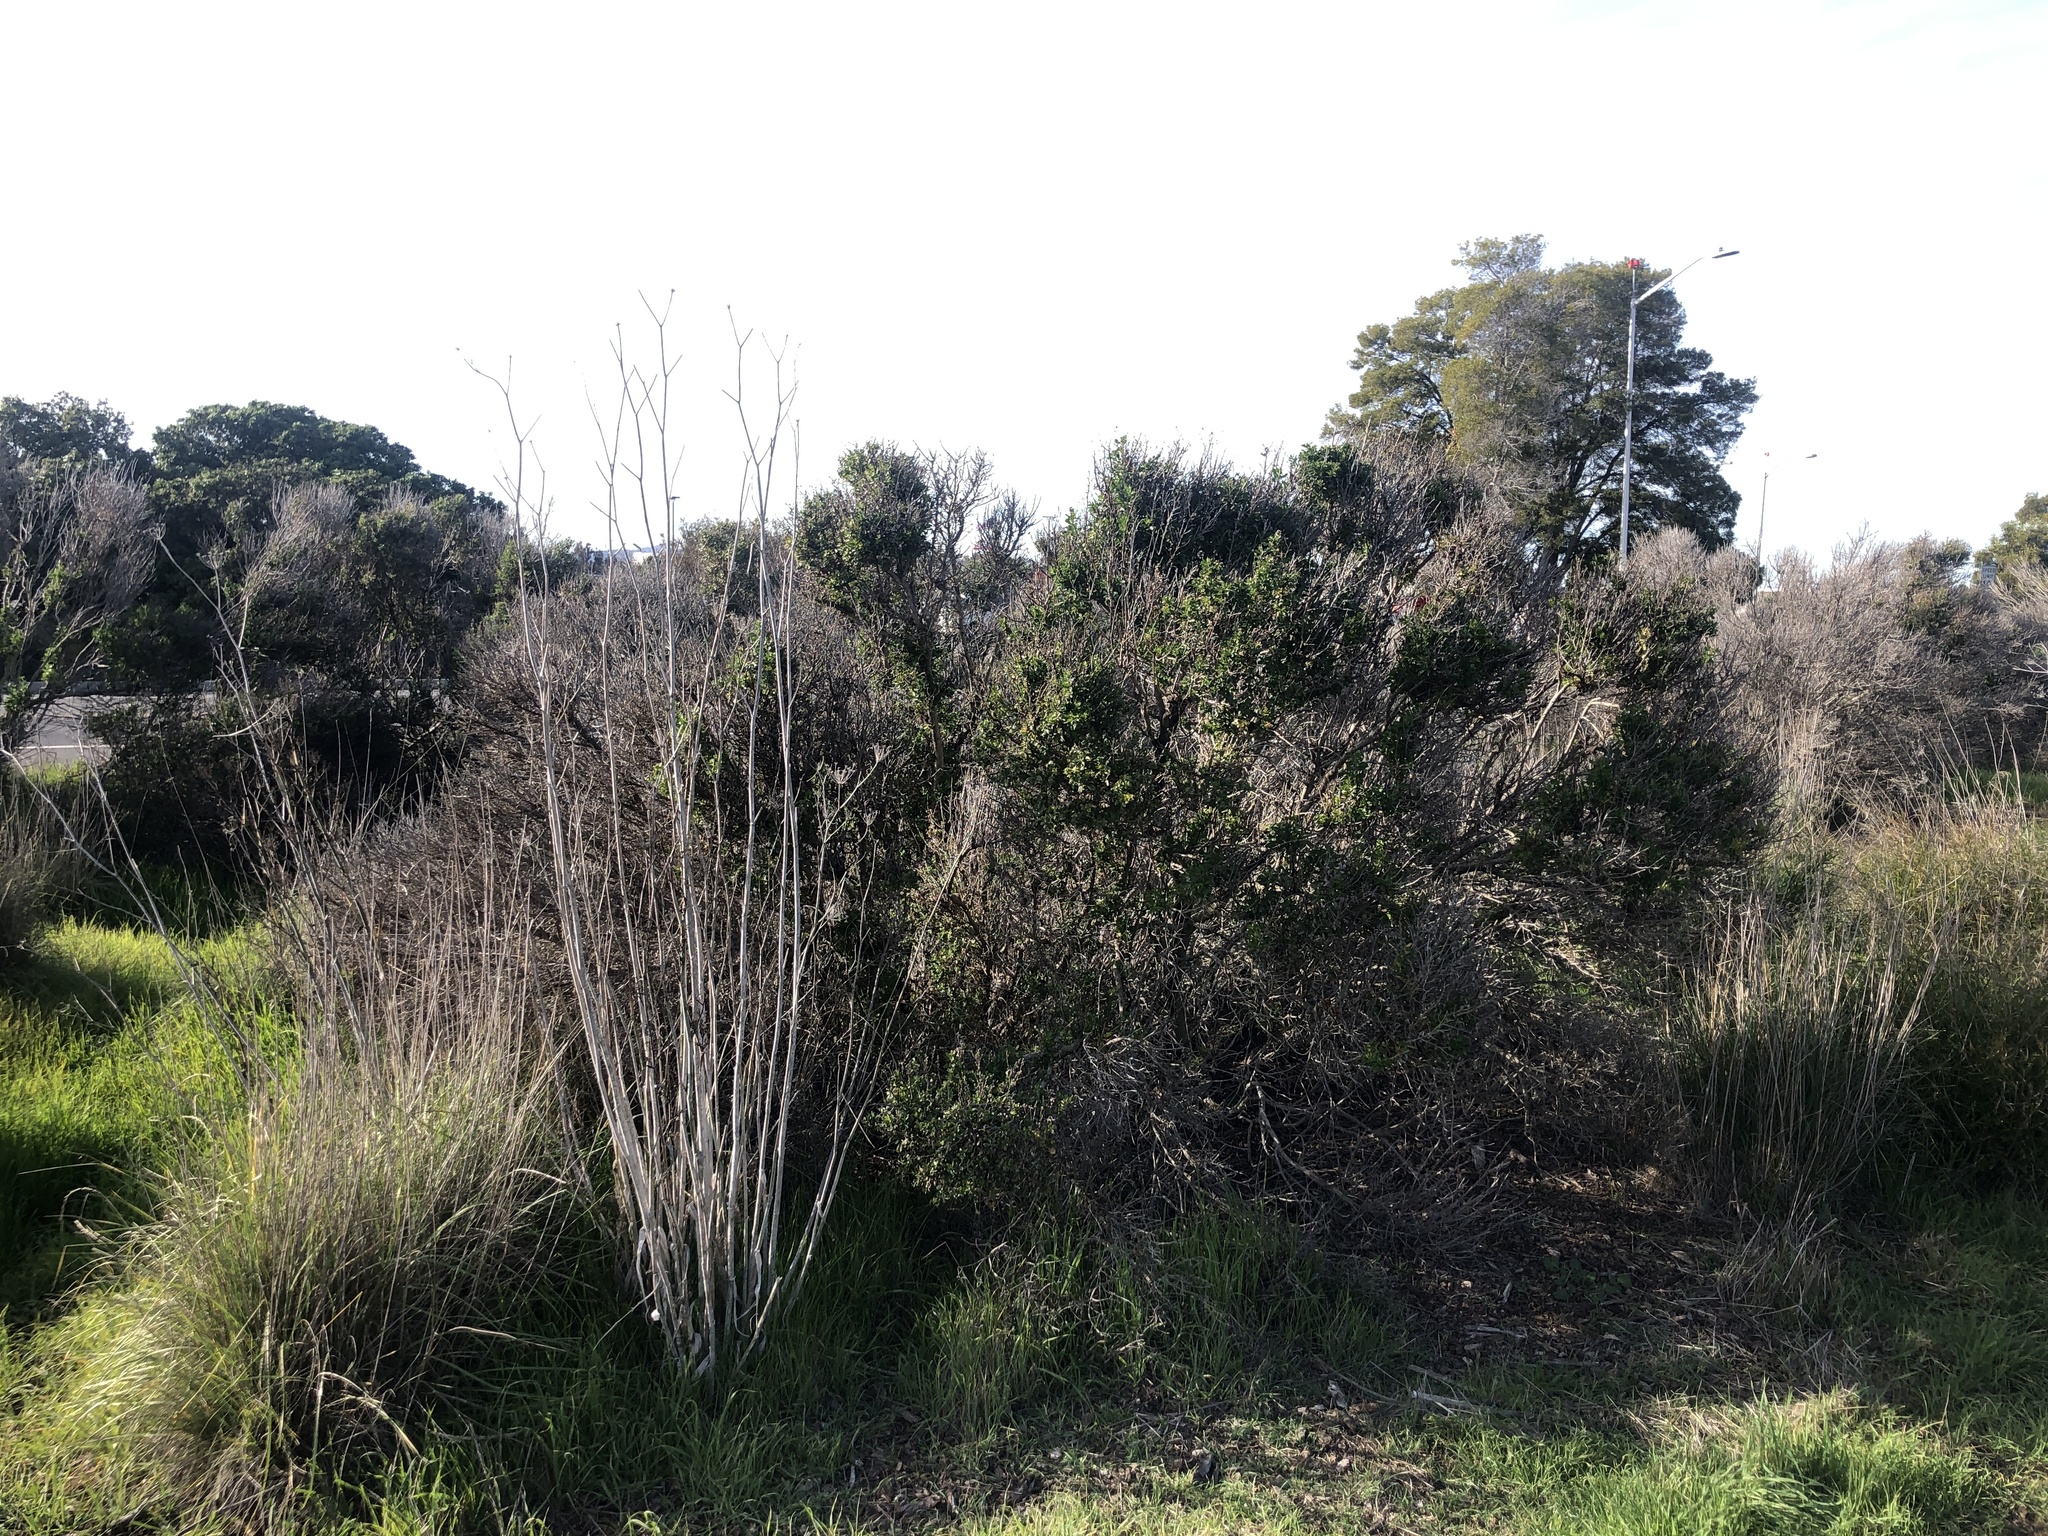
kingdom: Fungi
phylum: Basidiomycota
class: Pucciniomycetes
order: Pucciniales
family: Pucciniaceae
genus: Eriosporangium
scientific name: Eriosporangium evadens
